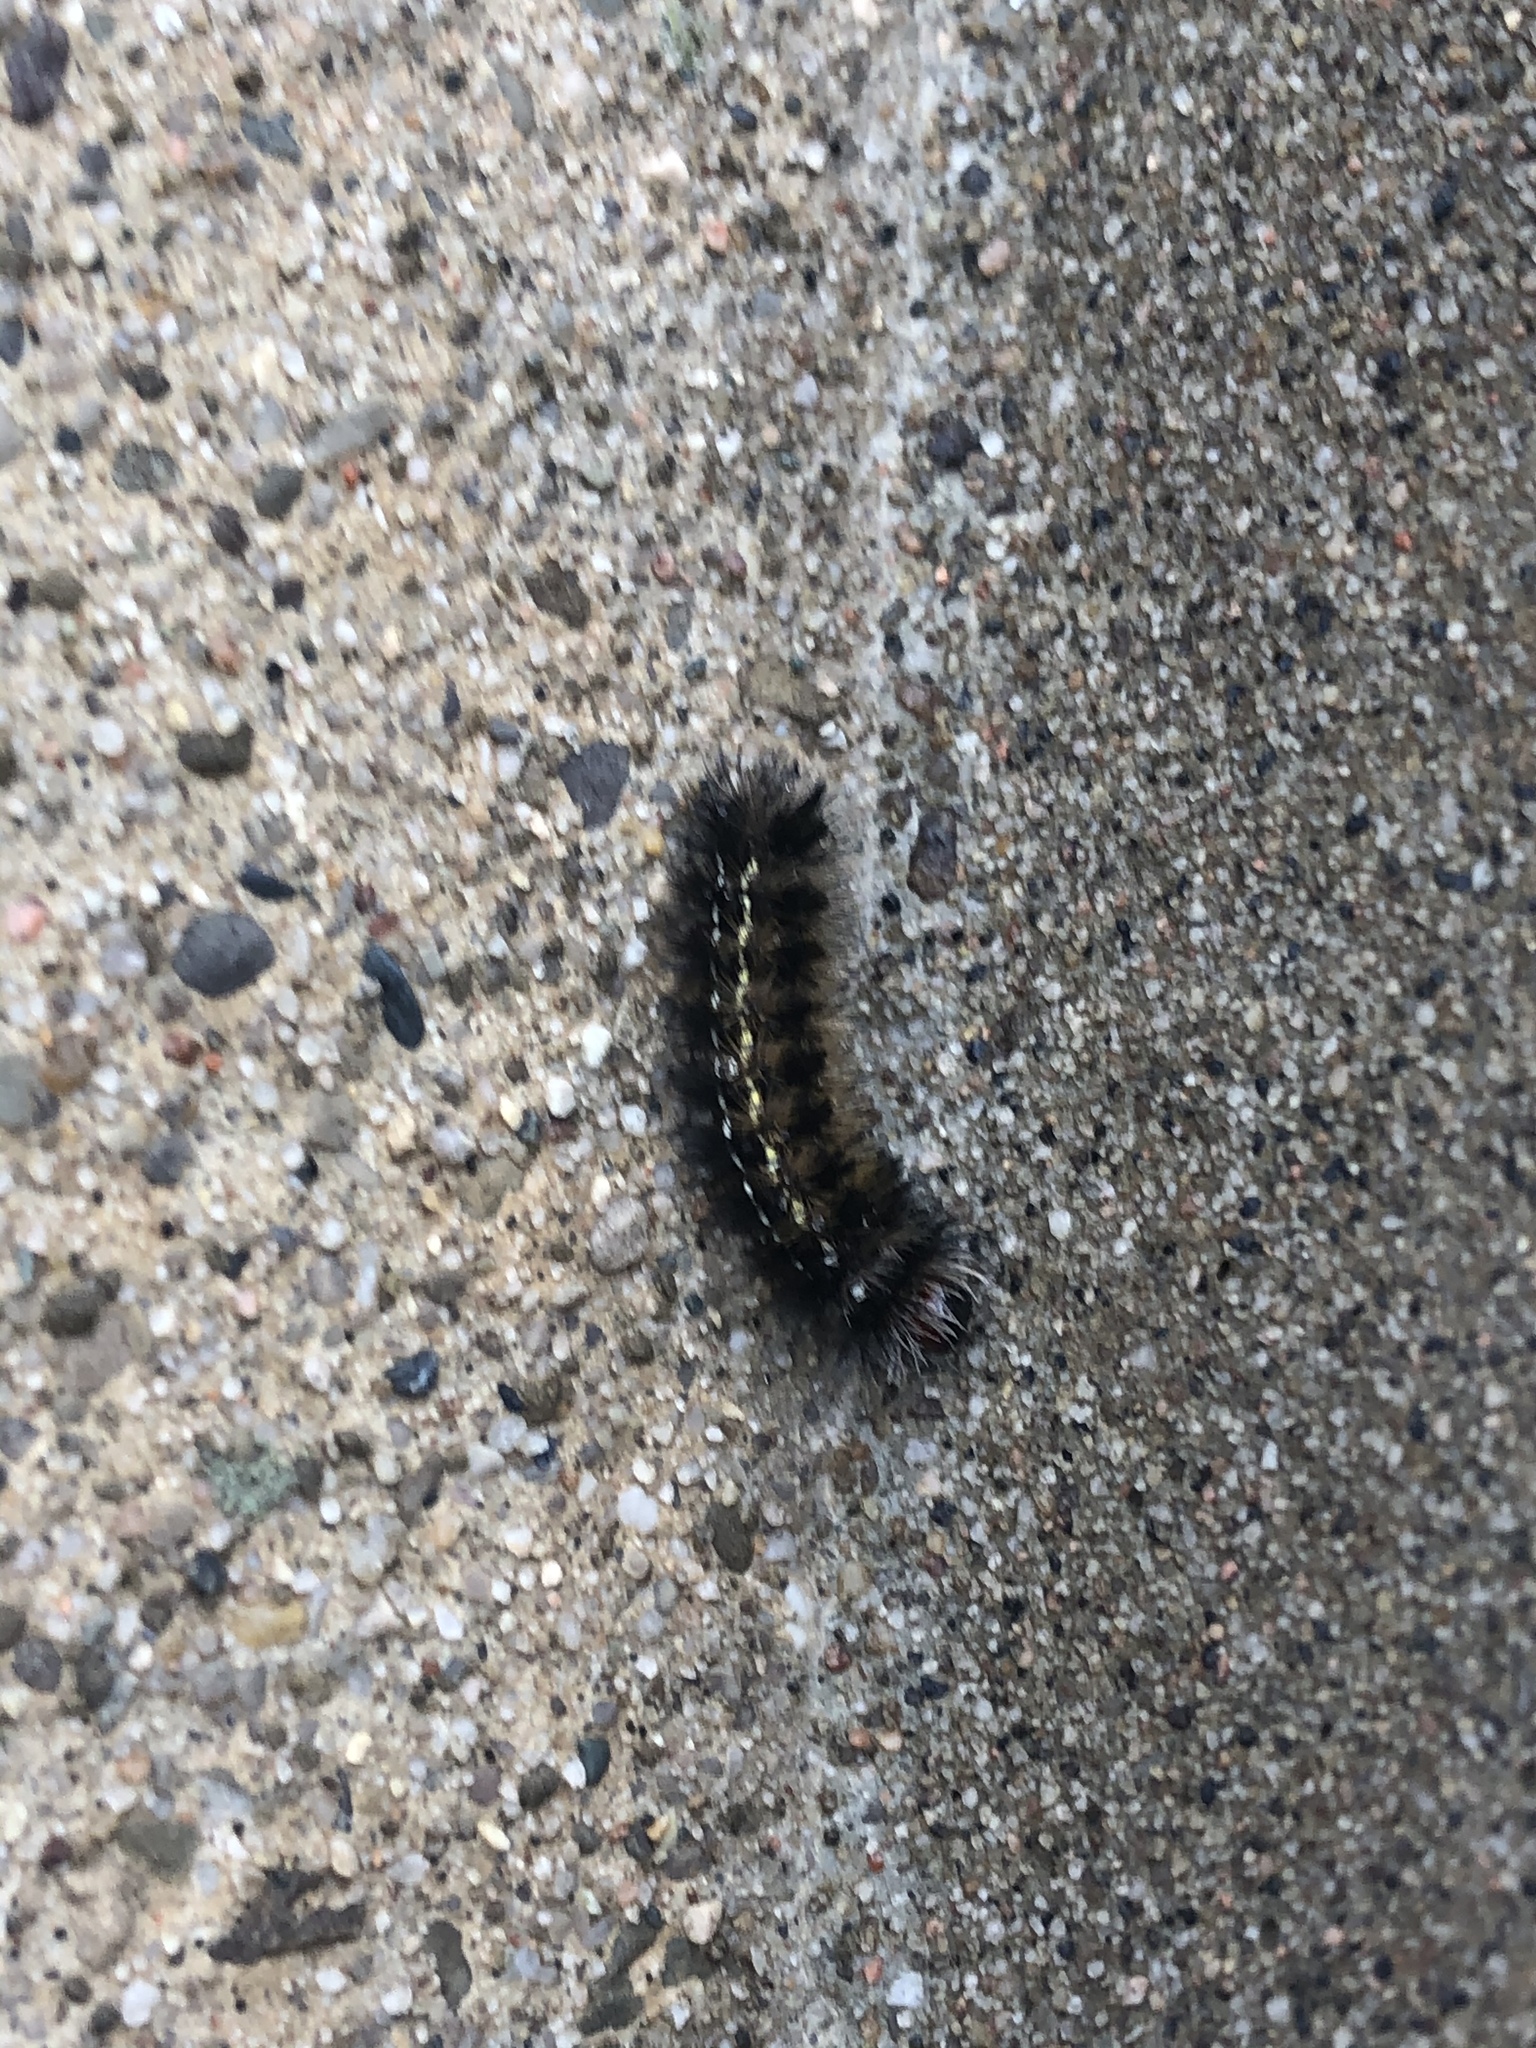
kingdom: Animalia
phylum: Arthropoda
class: Insecta
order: Lepidoptera
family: Erebidae
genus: Ctenucha
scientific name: Ctenucha virginica
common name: Virginia ctenucha moth
